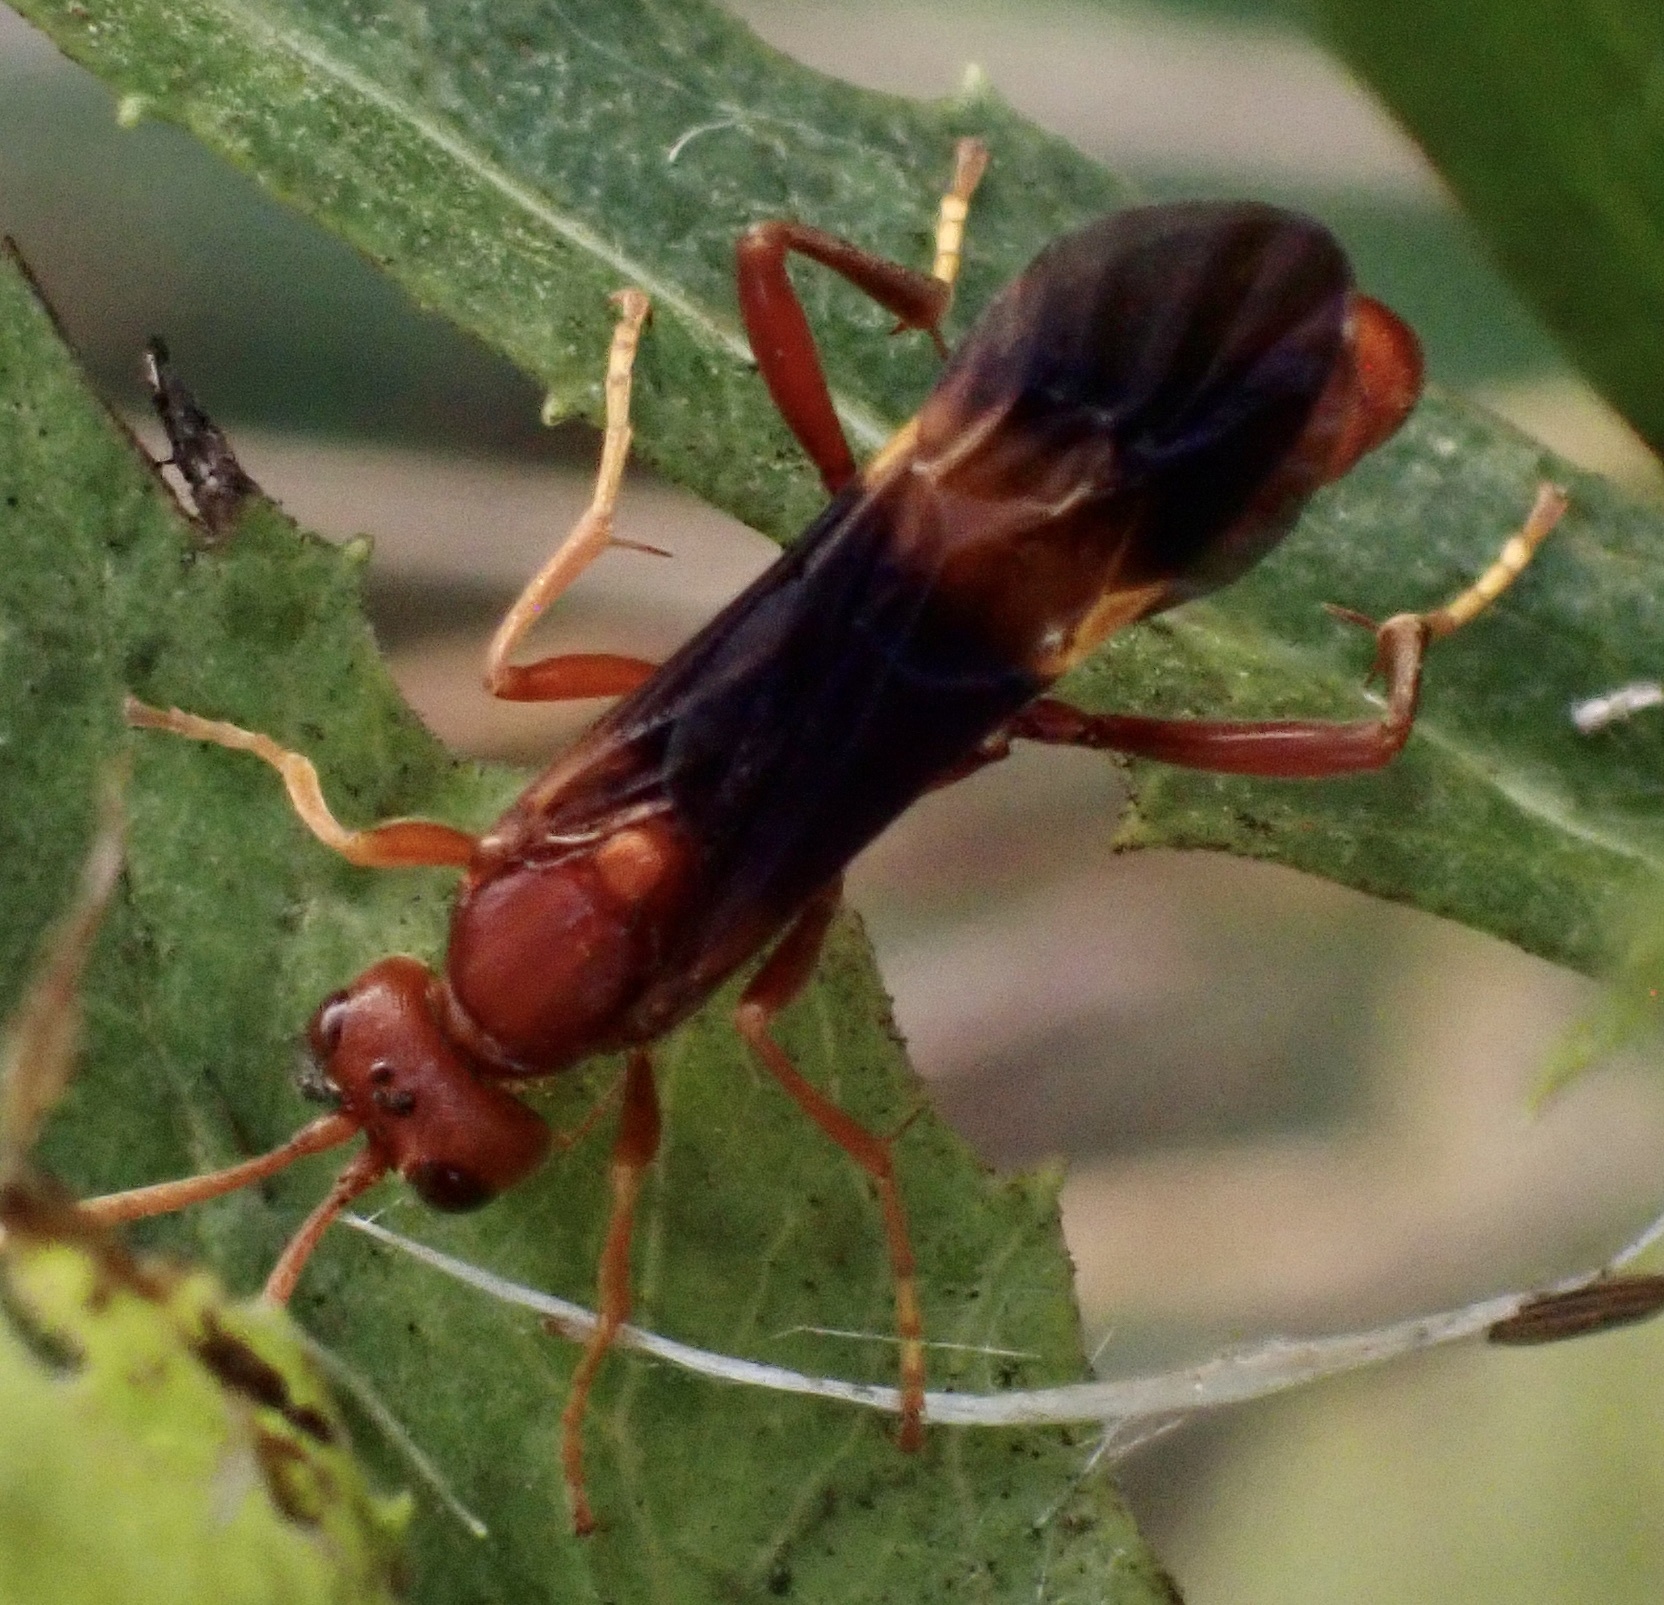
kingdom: Animalia
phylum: Arthropoda
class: Insecta
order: Hymenoptera
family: Ichneumonidae
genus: Trogomorpha
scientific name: Trogomorpha arrogans
